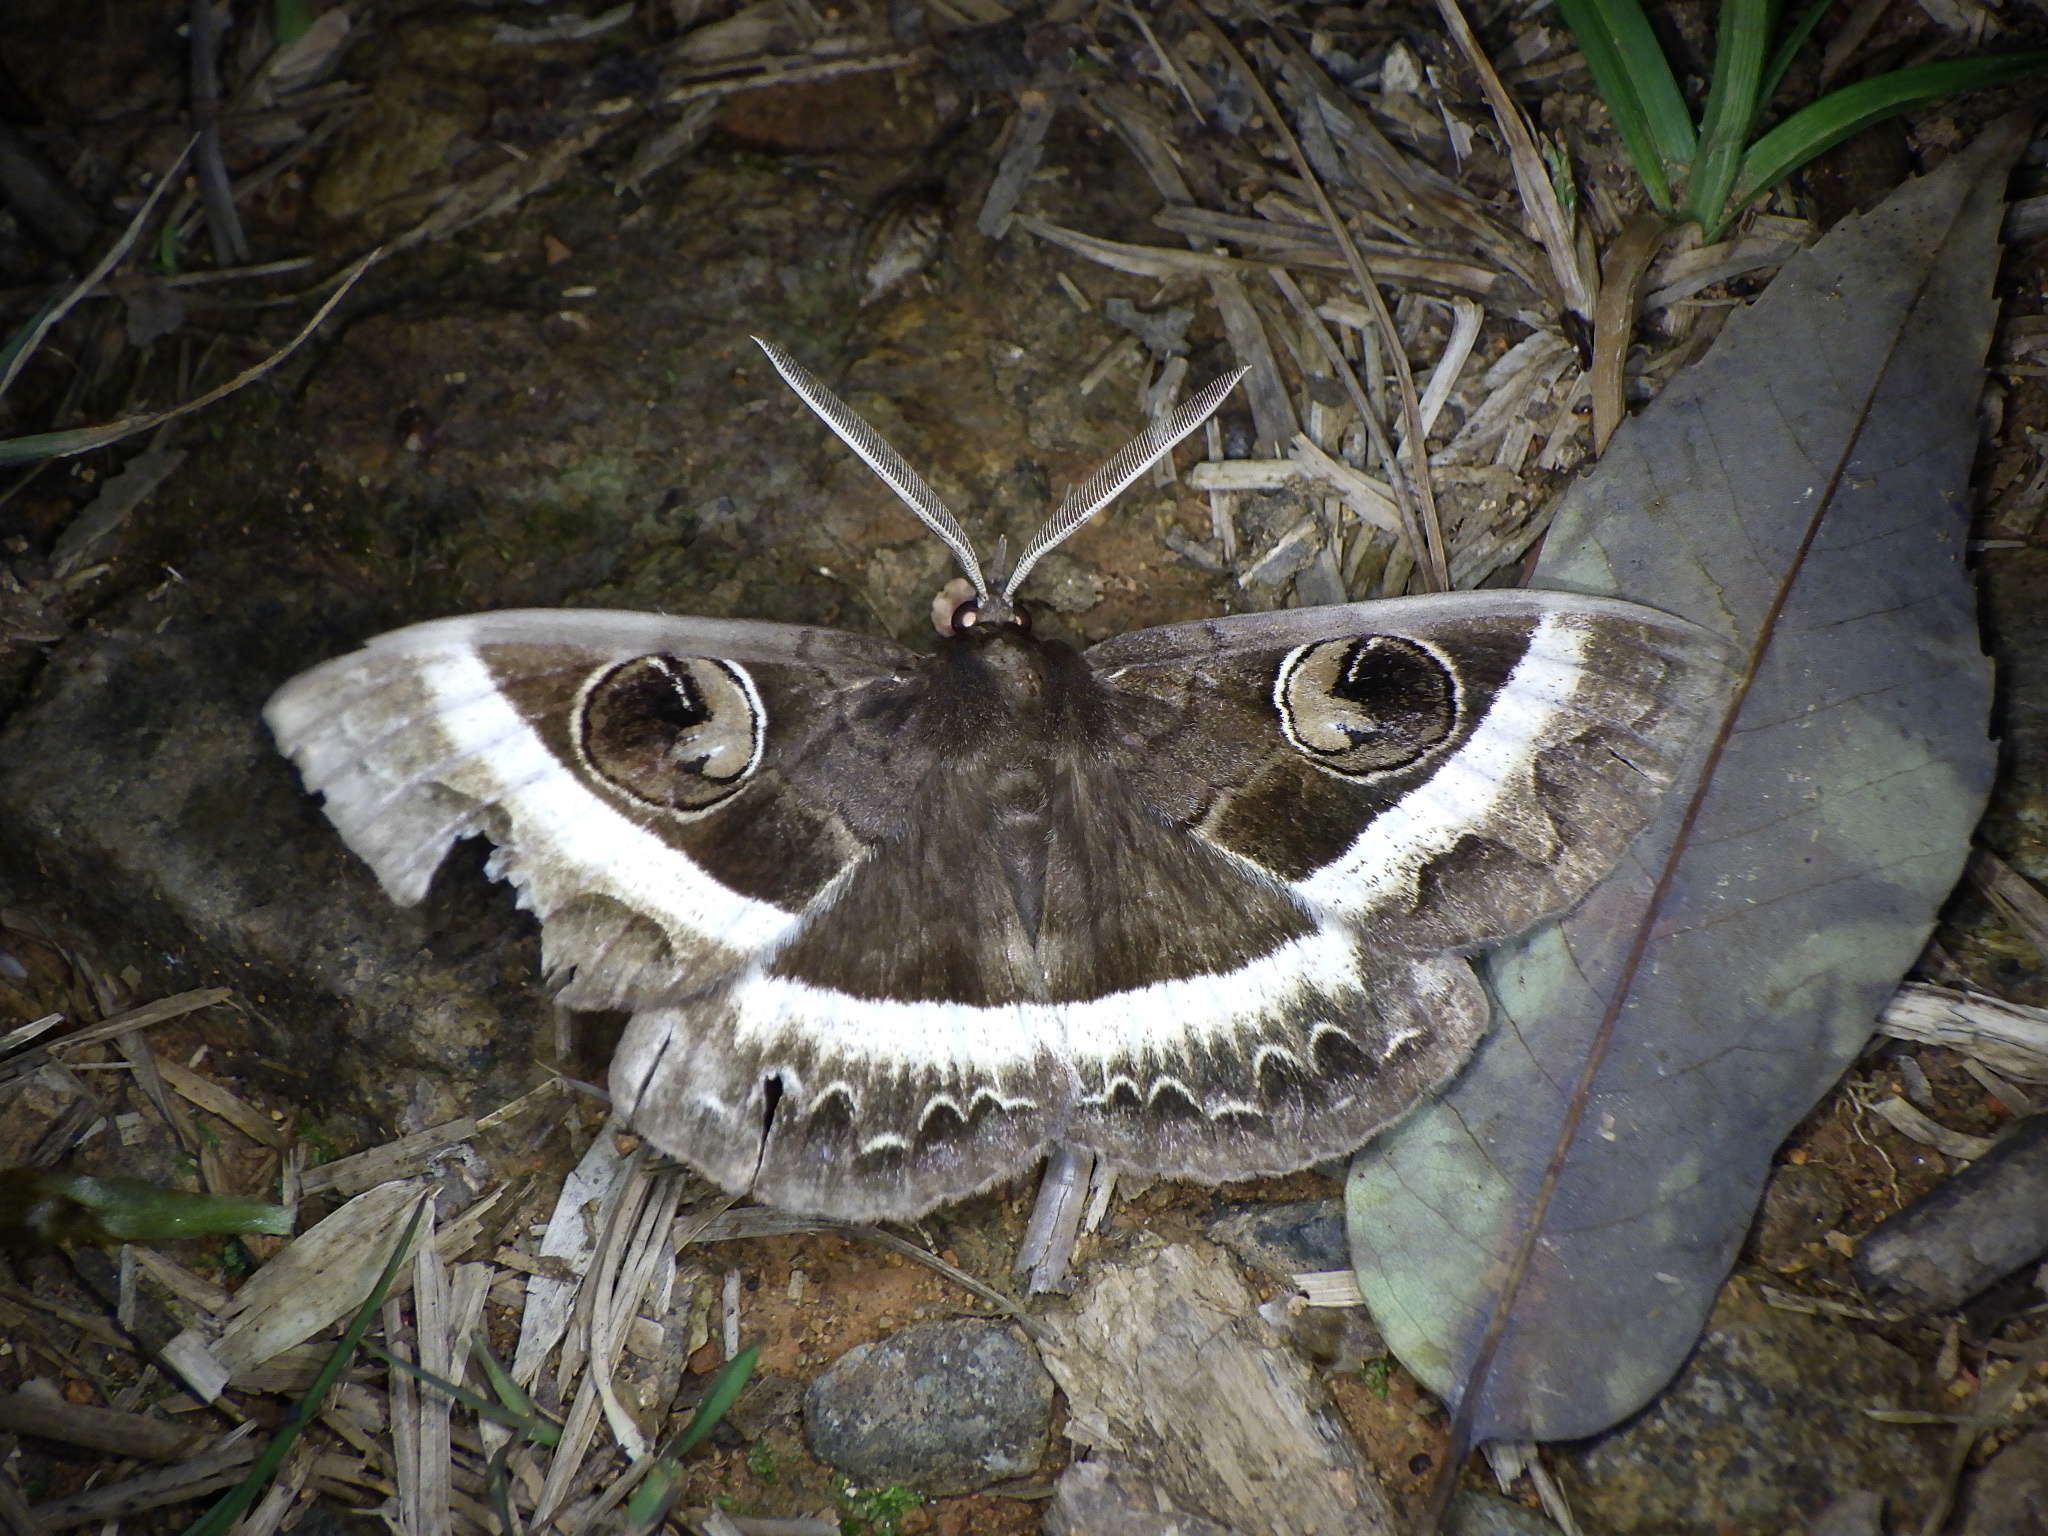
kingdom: Animalia
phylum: Arthropoda
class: Insecta
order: Lepidoptera
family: Erebidae
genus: Metopta
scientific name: Metopta rectifasciata
